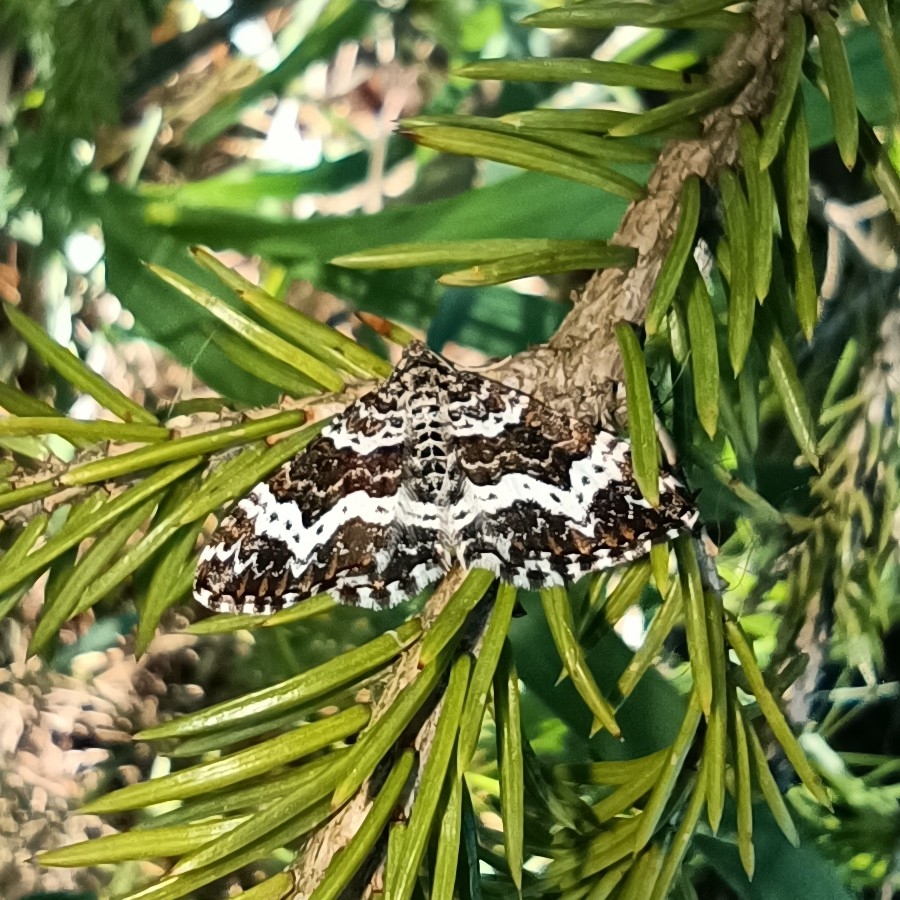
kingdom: Animalia
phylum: Arthropoda
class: Insecta
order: Lepidoptera
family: Geometridae
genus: Epirrhoe
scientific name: Epirrhoe tristata
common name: Small argent & sable
